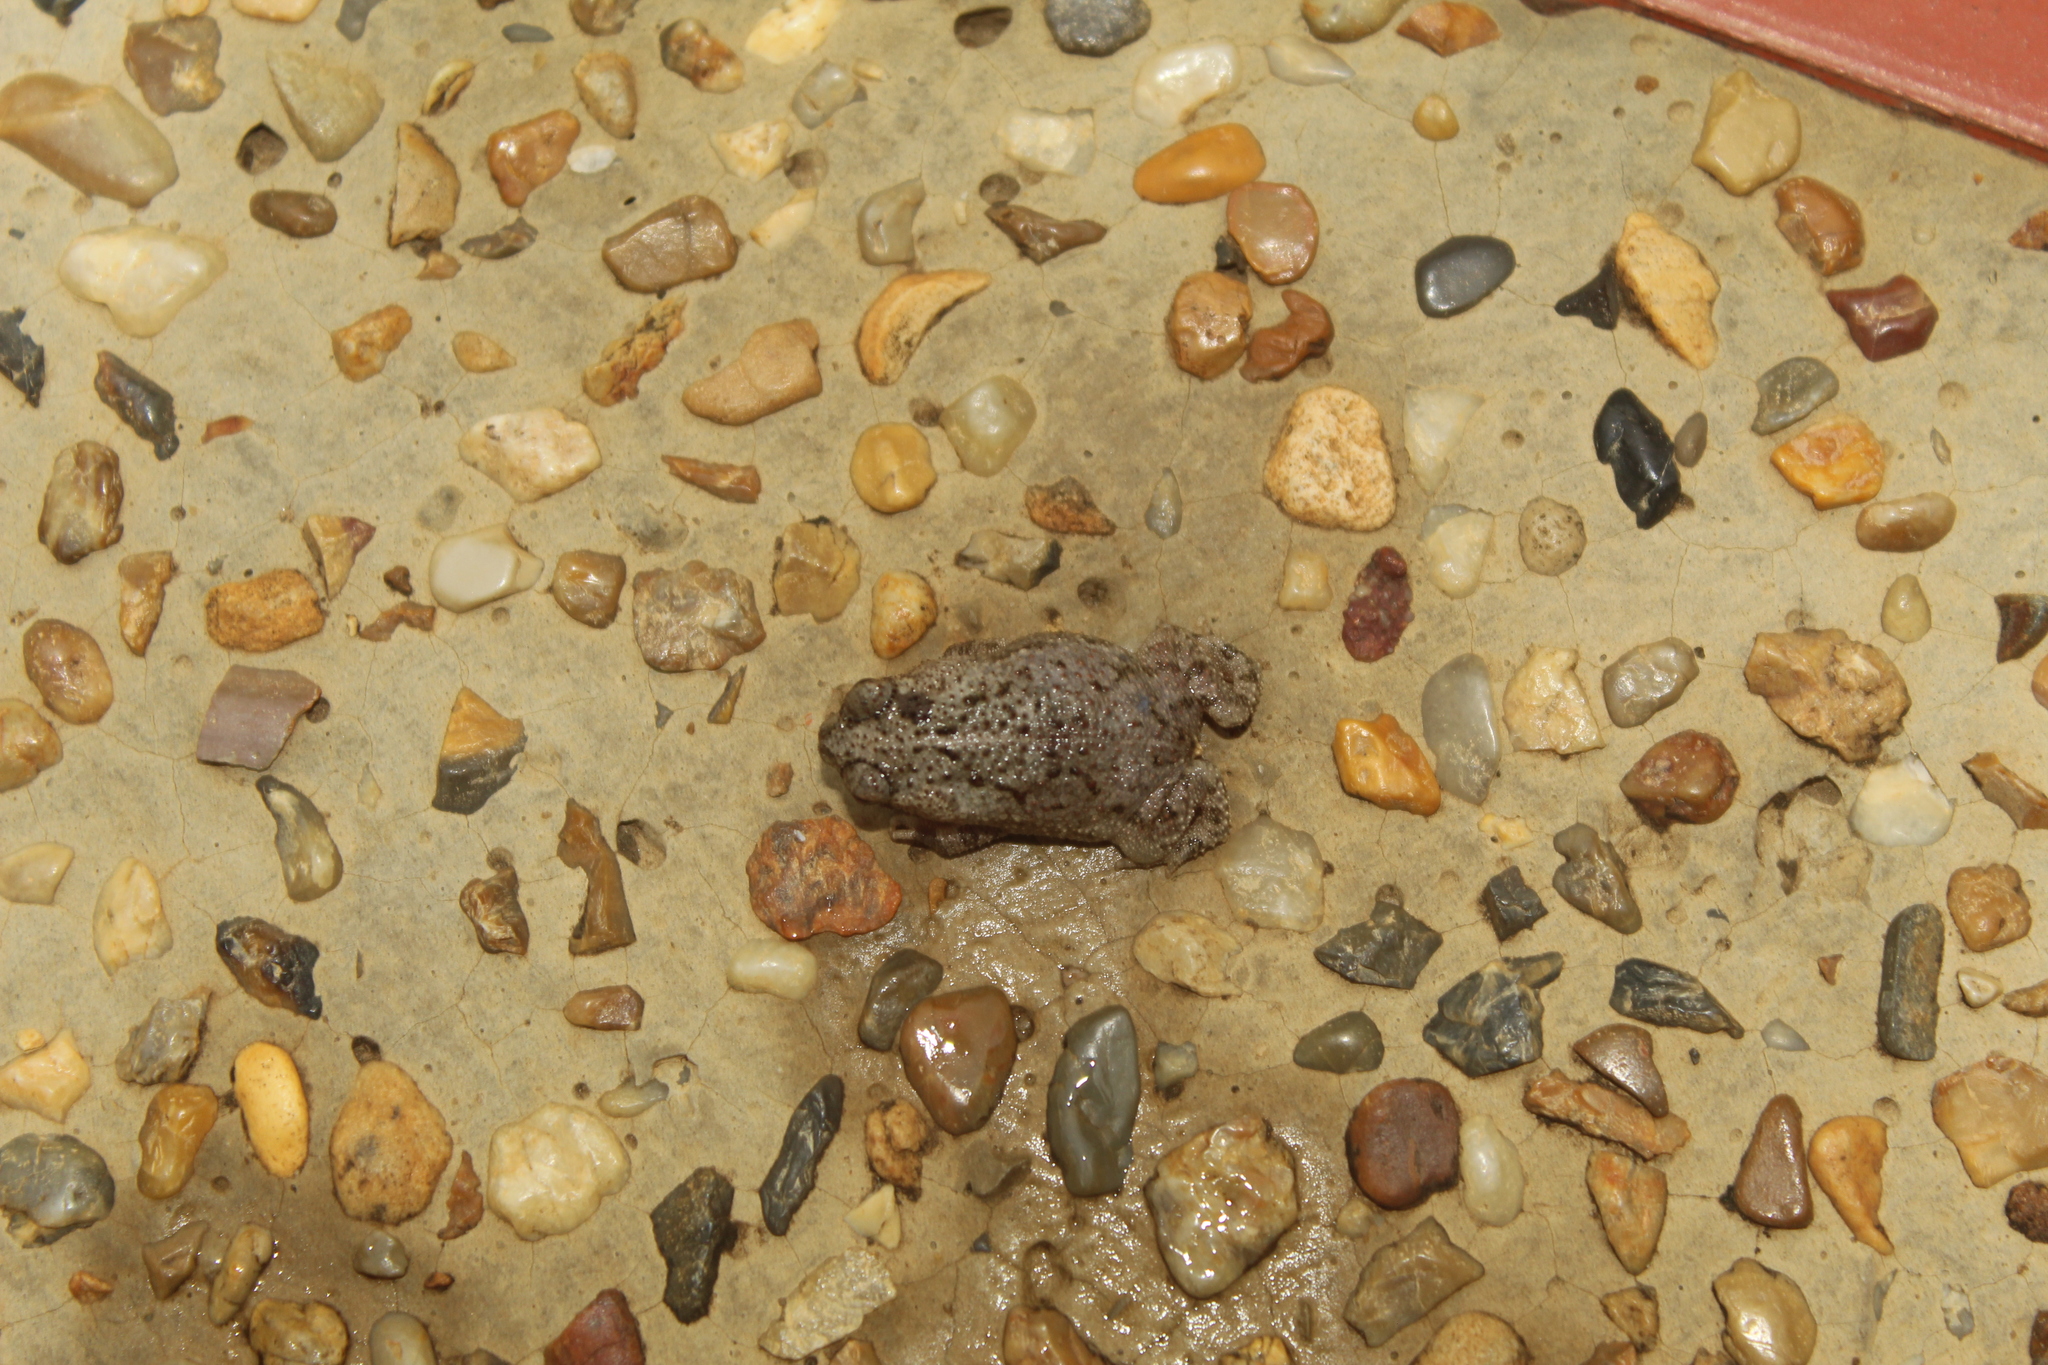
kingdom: Animalia
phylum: Chordata
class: Amphibia
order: Anura
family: Bufonidae
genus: Rhinella
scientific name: Rhinella beebei
